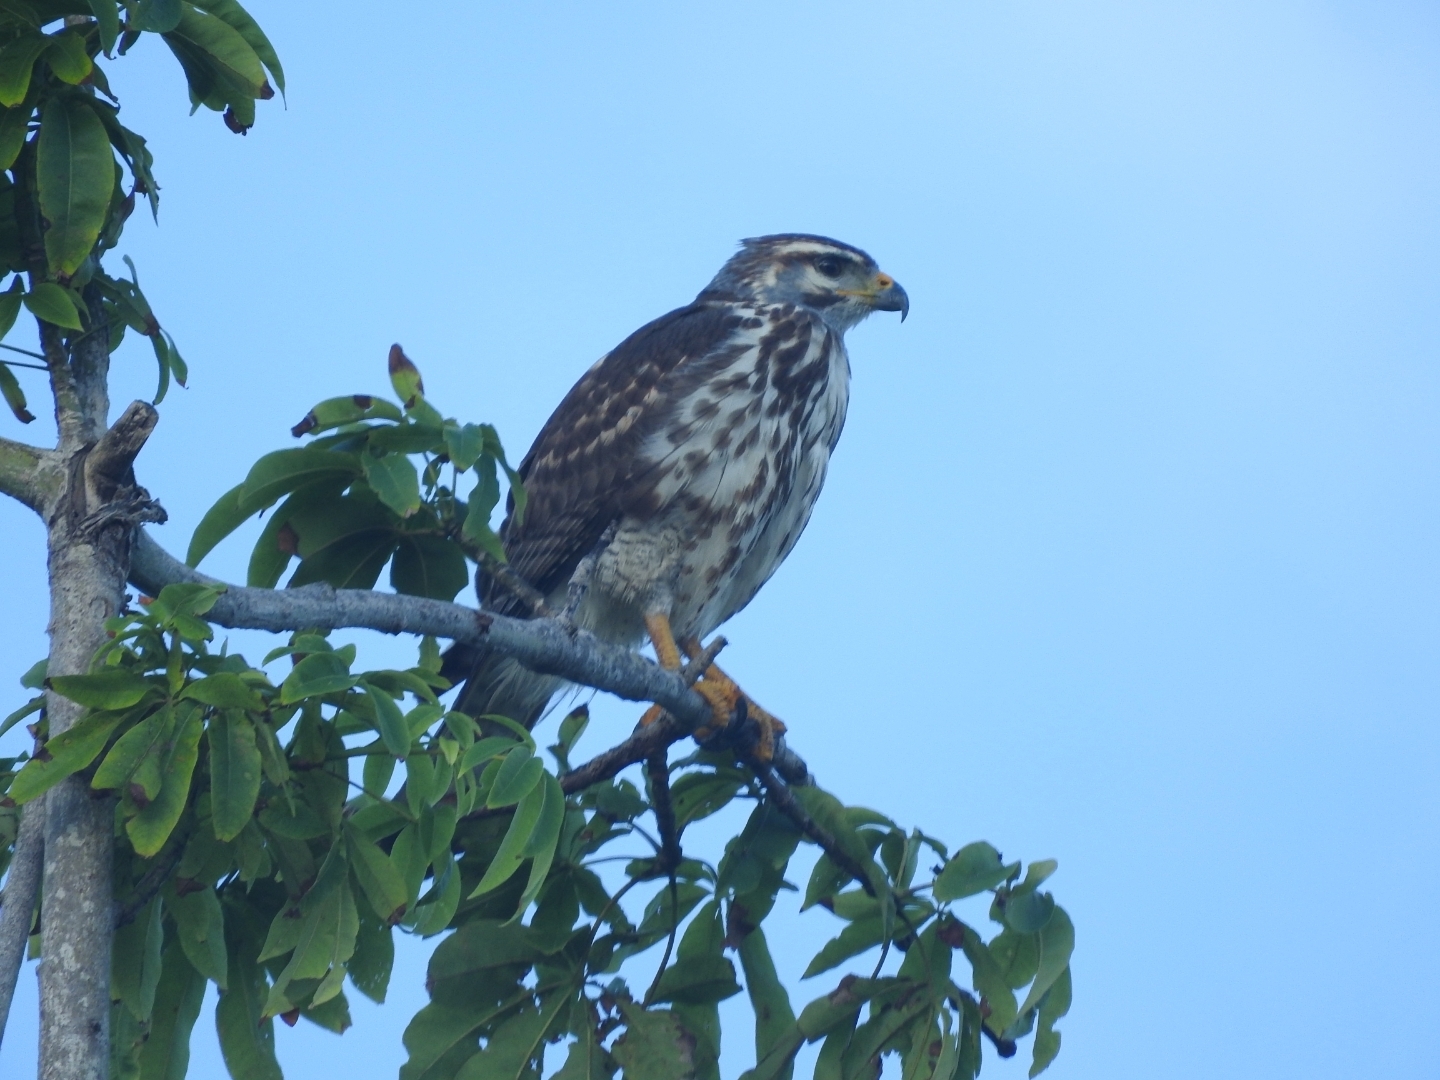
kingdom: Animalia
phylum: Chordata
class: Aves
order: Accipitriformes
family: Accipitridae
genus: Buteo
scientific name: Buteo nitidus
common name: Grey-lined hawk
